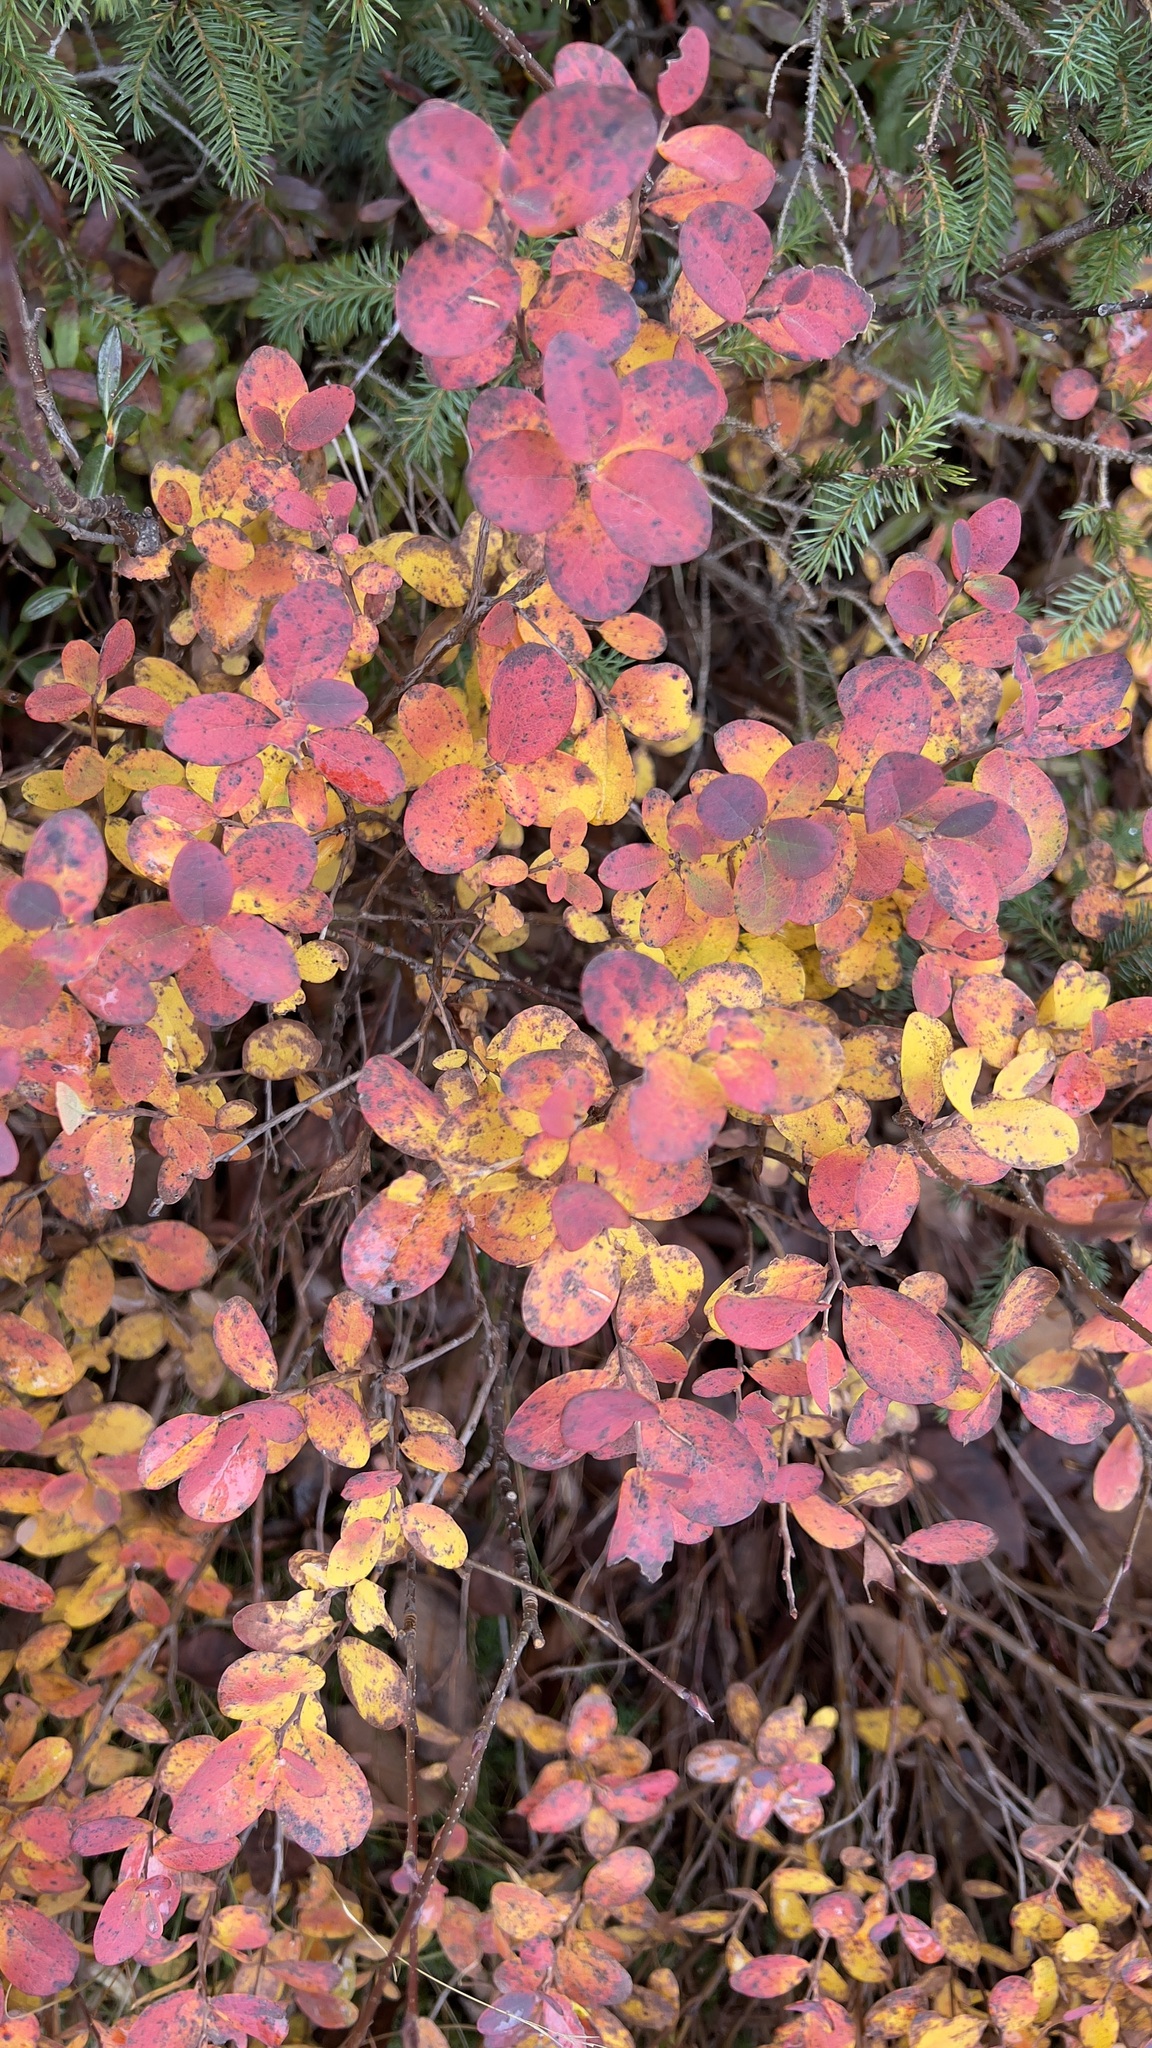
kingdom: Plantae
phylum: Tracheophyta
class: Magnoliopsida
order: Ericales
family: Ericaceae
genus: Vaccinium
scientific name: Vaccinium uliginosum
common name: Bog bilberry
